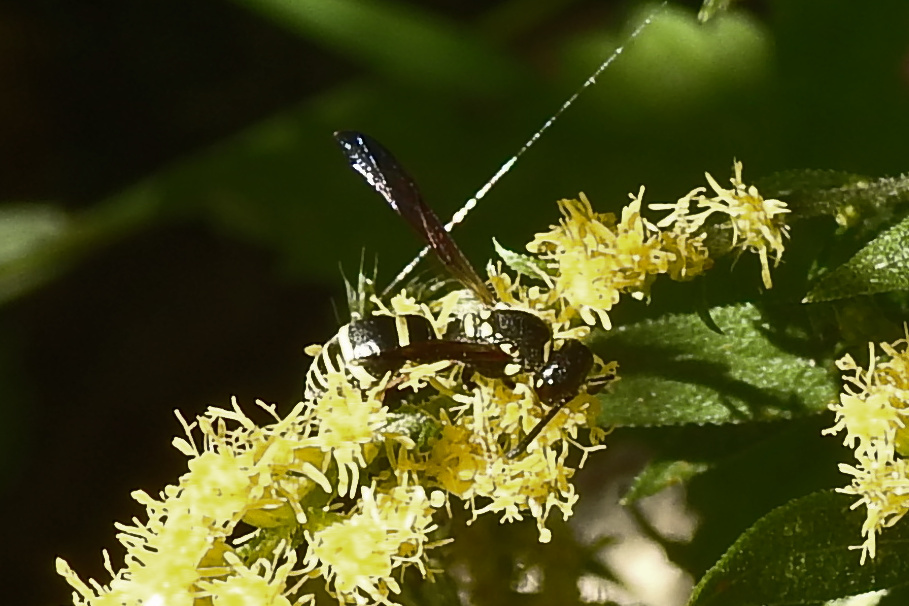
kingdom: Animalia
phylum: Arthropoda
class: Insecta
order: Hymenoptera
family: Vespidae
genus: Ancistrocerus
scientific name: Ancistrocerus adiabatus
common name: Bramble mason wasp
